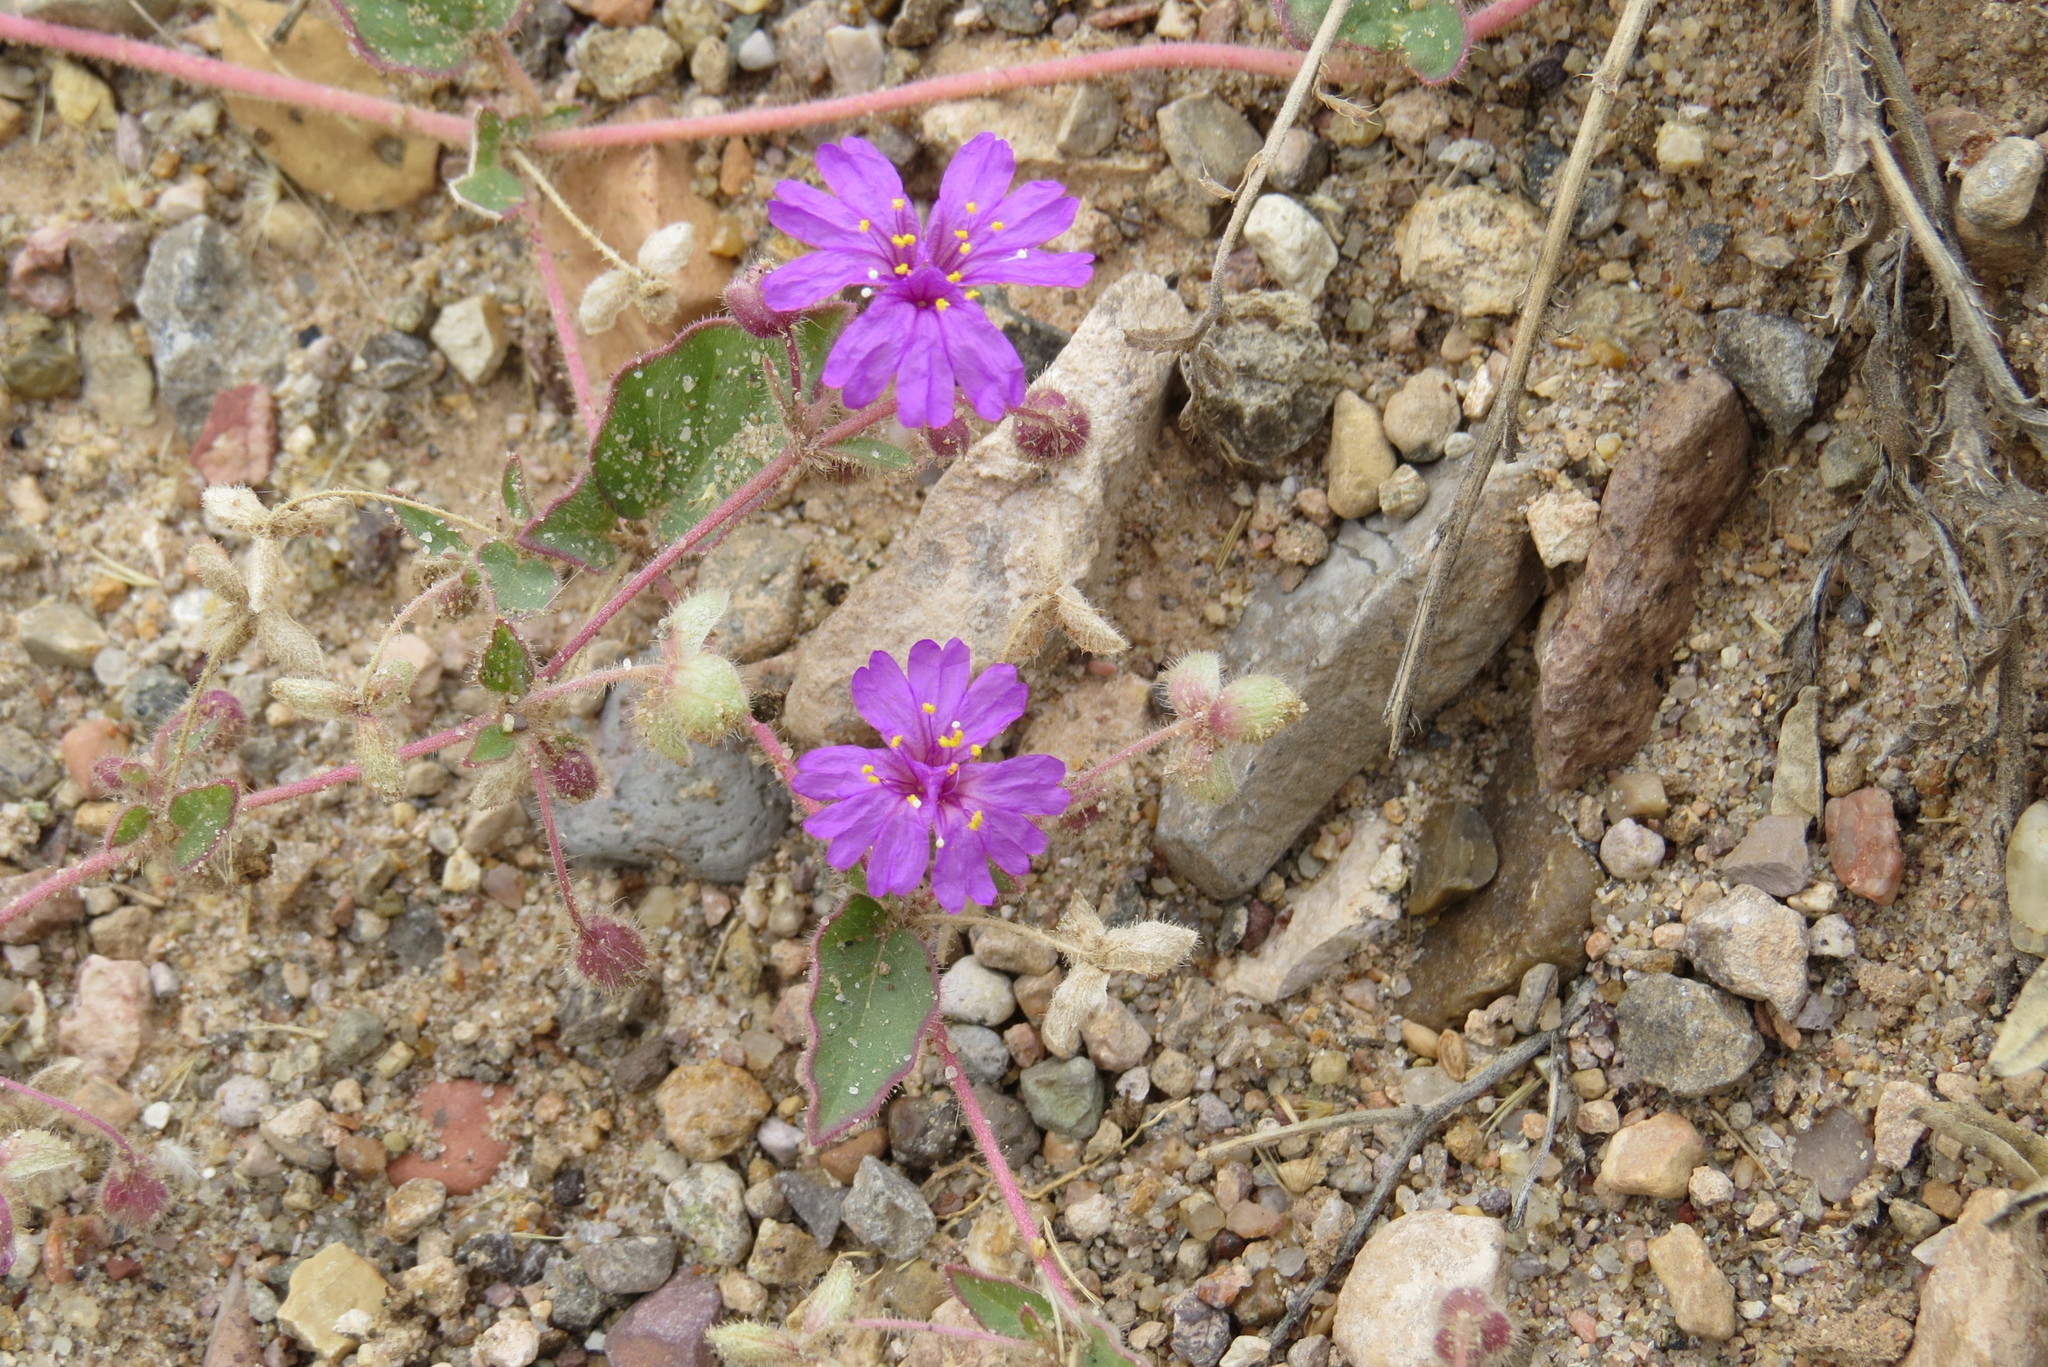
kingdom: Plantae
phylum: Tracheophyta
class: Magnoliopsida
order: Caryophyllales
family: Nyctaginaceae
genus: Allionia
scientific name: Allionia incarnata
